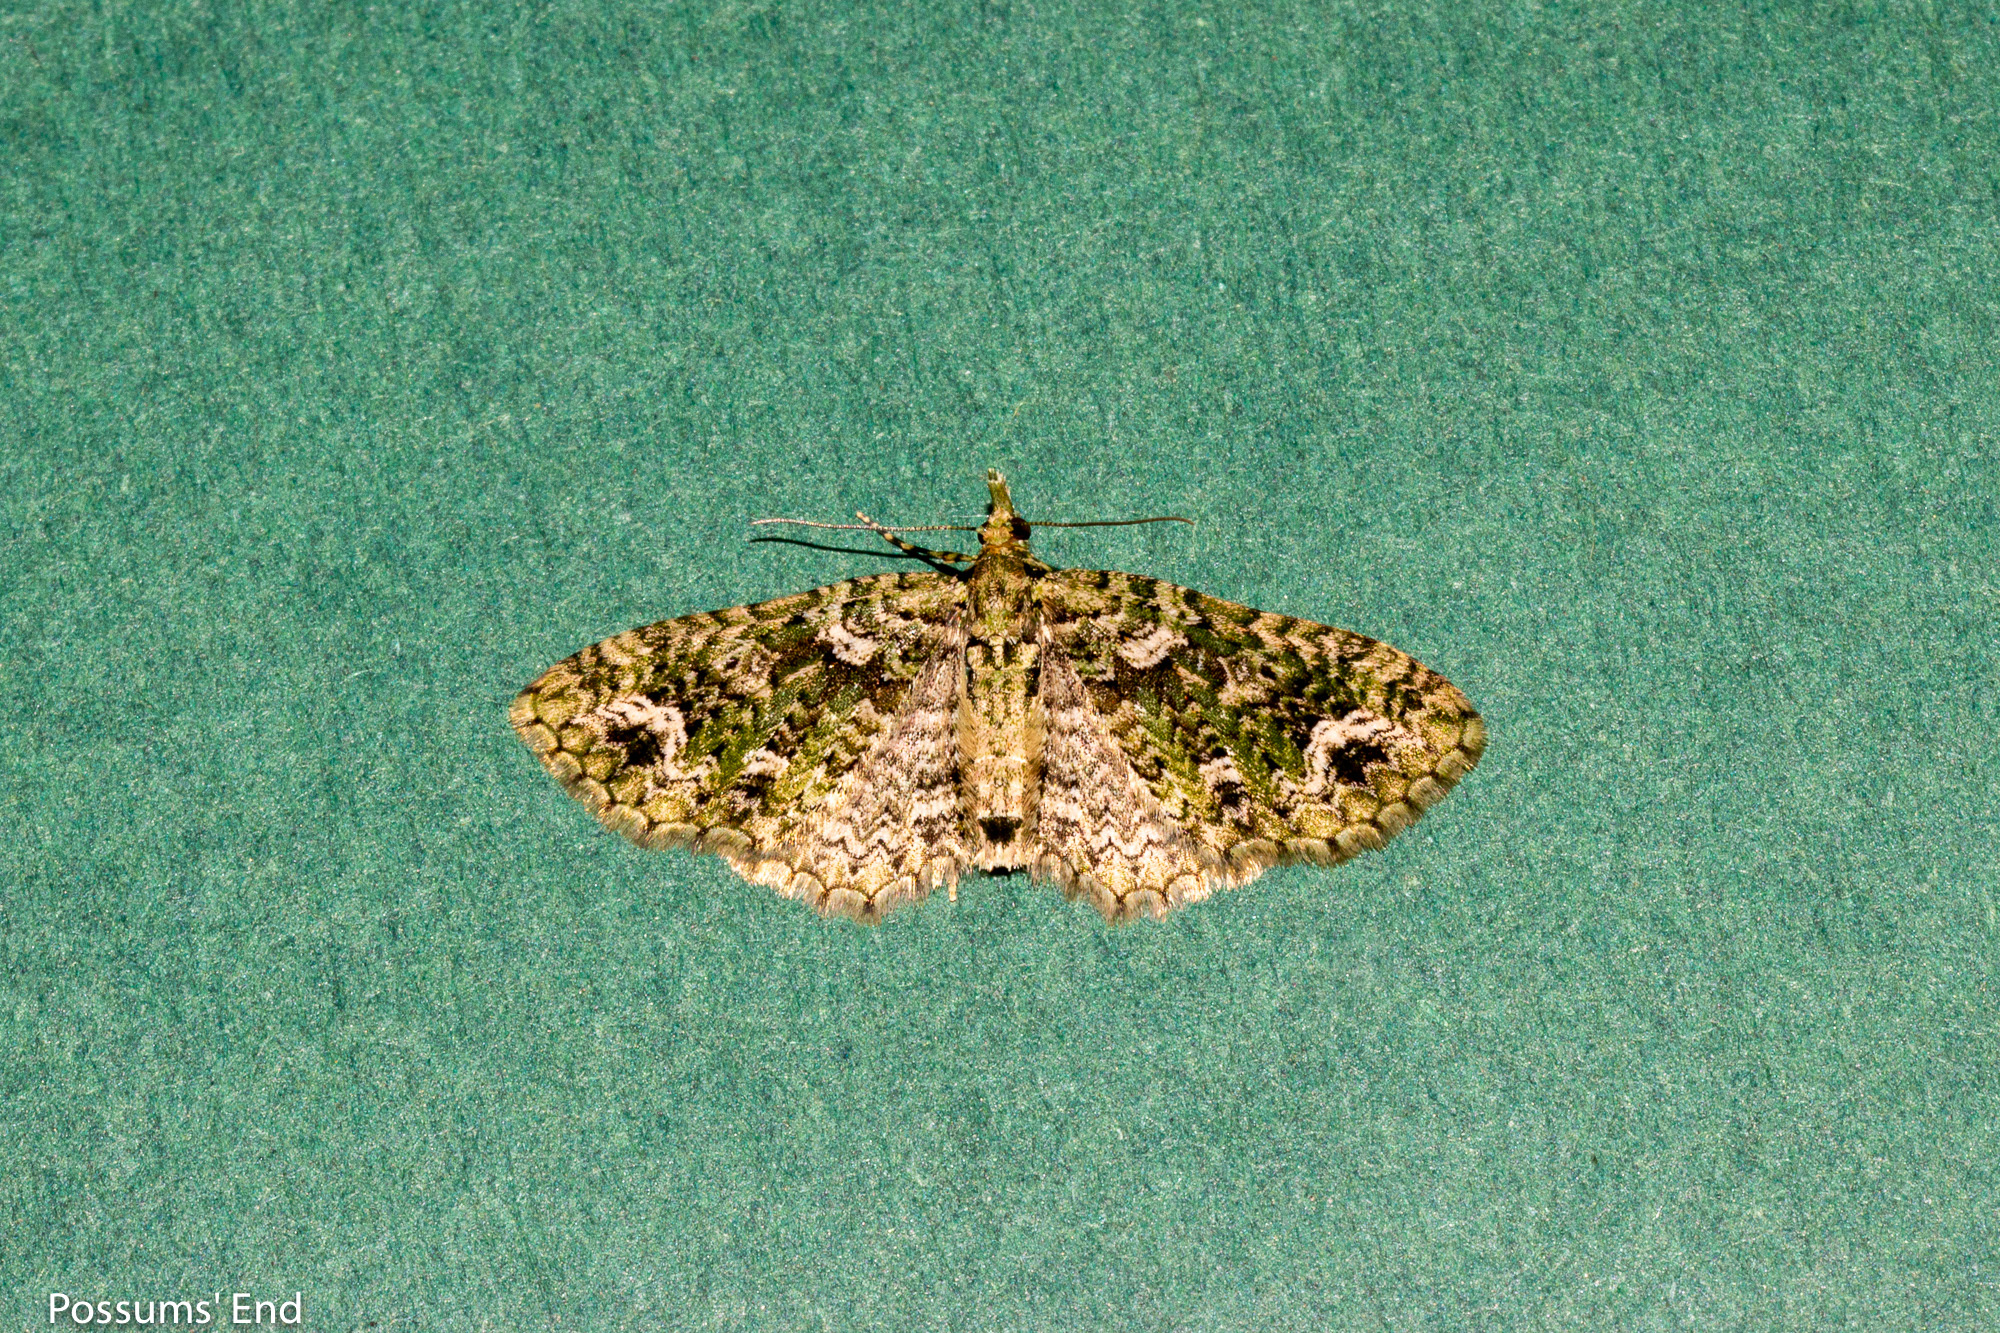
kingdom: Animalia
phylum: Arthropoda
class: Insecta
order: Lepidoptera
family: Geometridae
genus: Pasiphila
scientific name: Pasiphila muscosata
